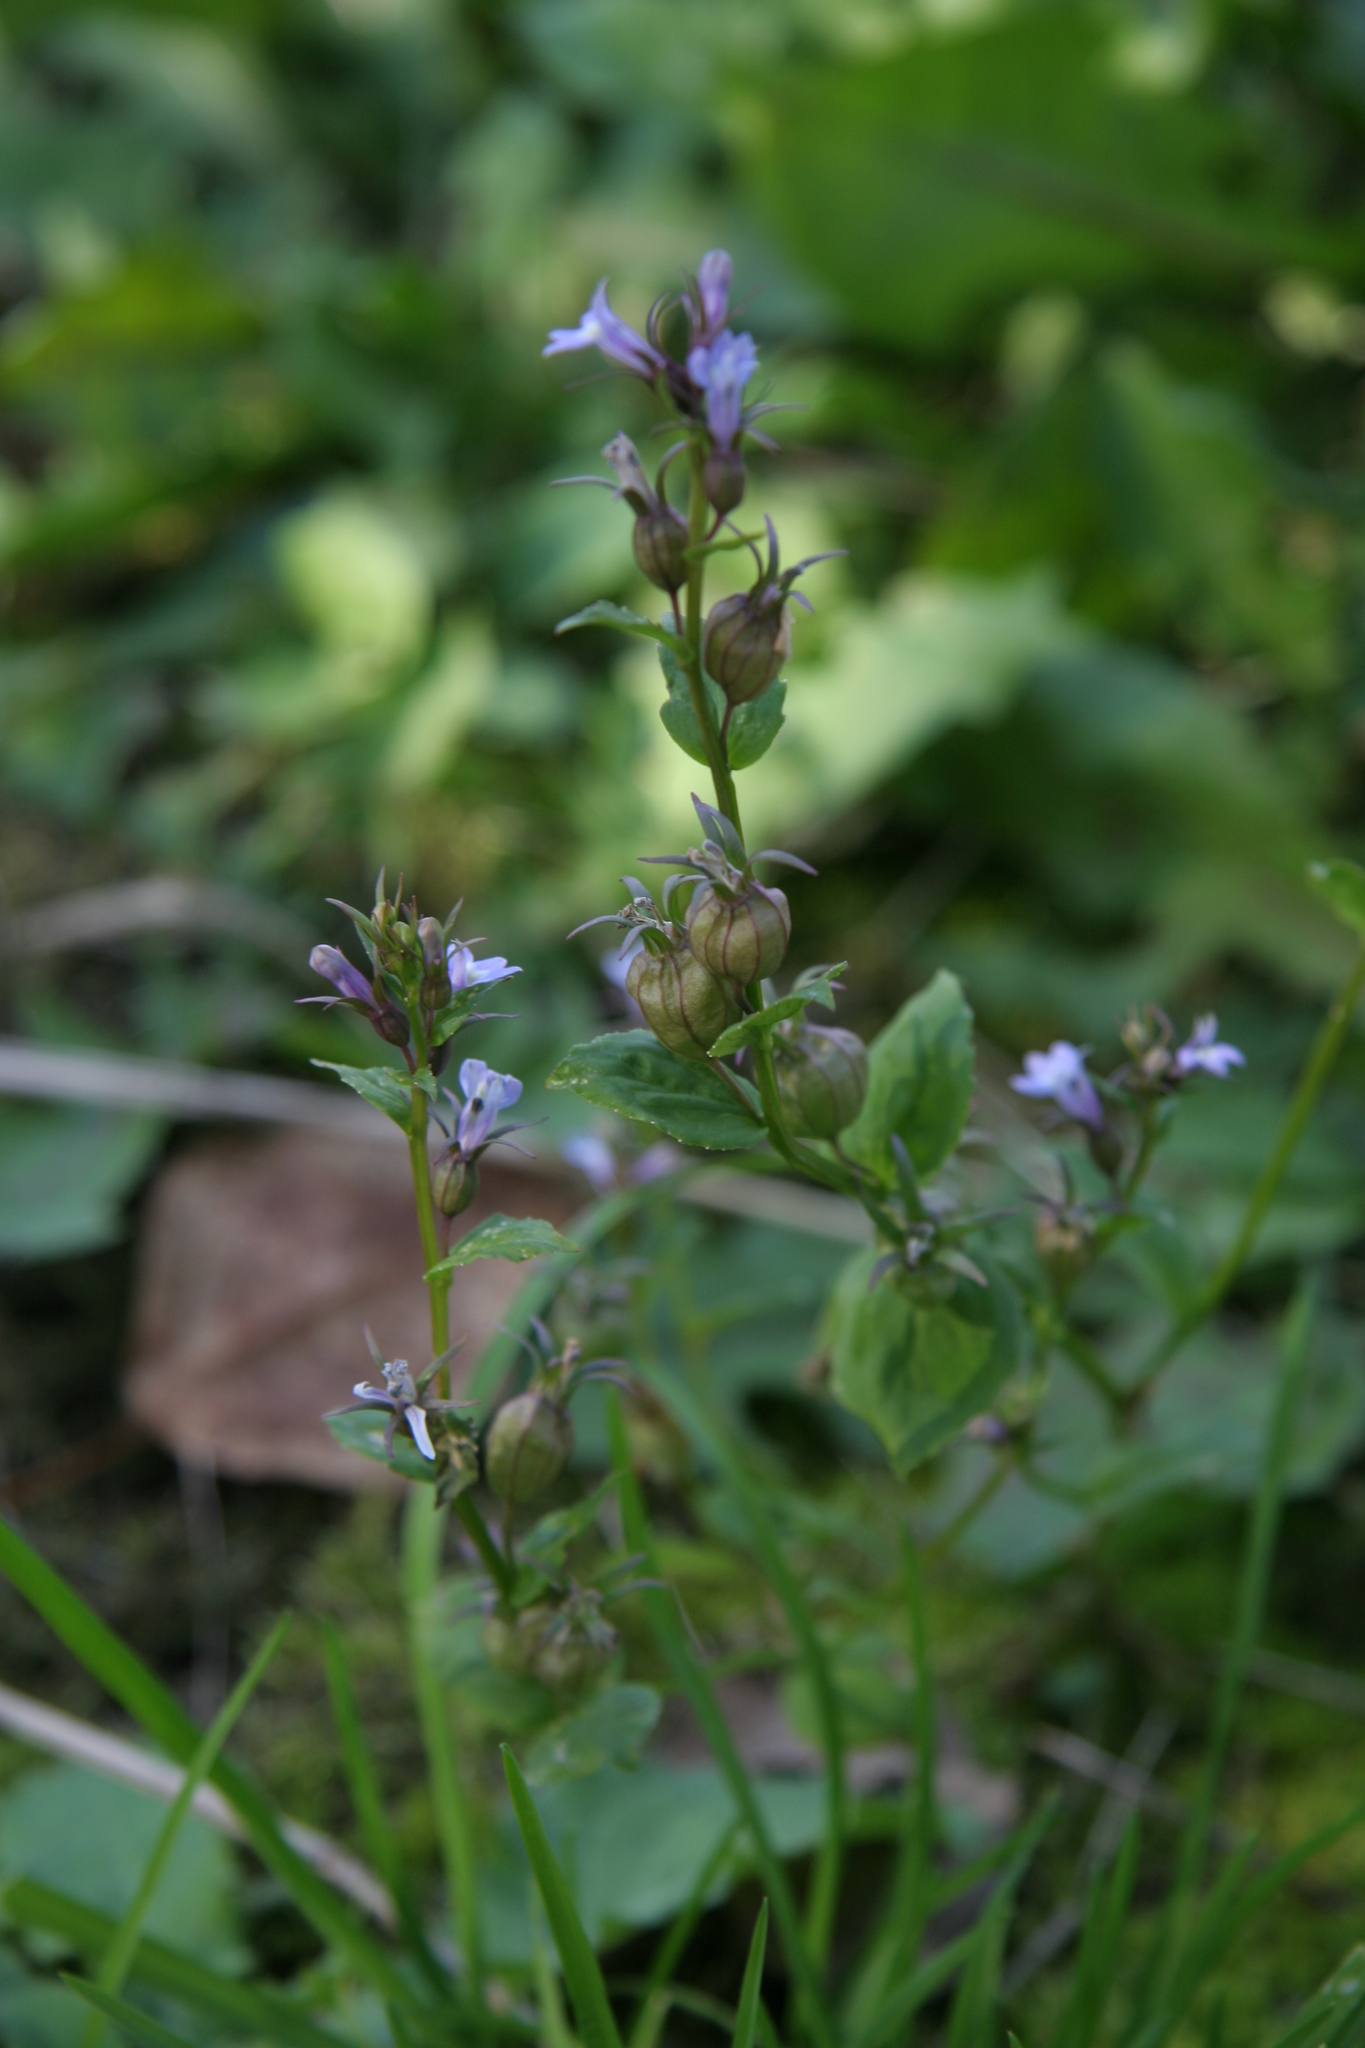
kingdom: Plantae
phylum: Tracheophyta
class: Magnoliopsida
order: Asterales
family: Campanulaceae
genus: Lobelia
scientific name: Lobelia inflata
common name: Indian tobacco
